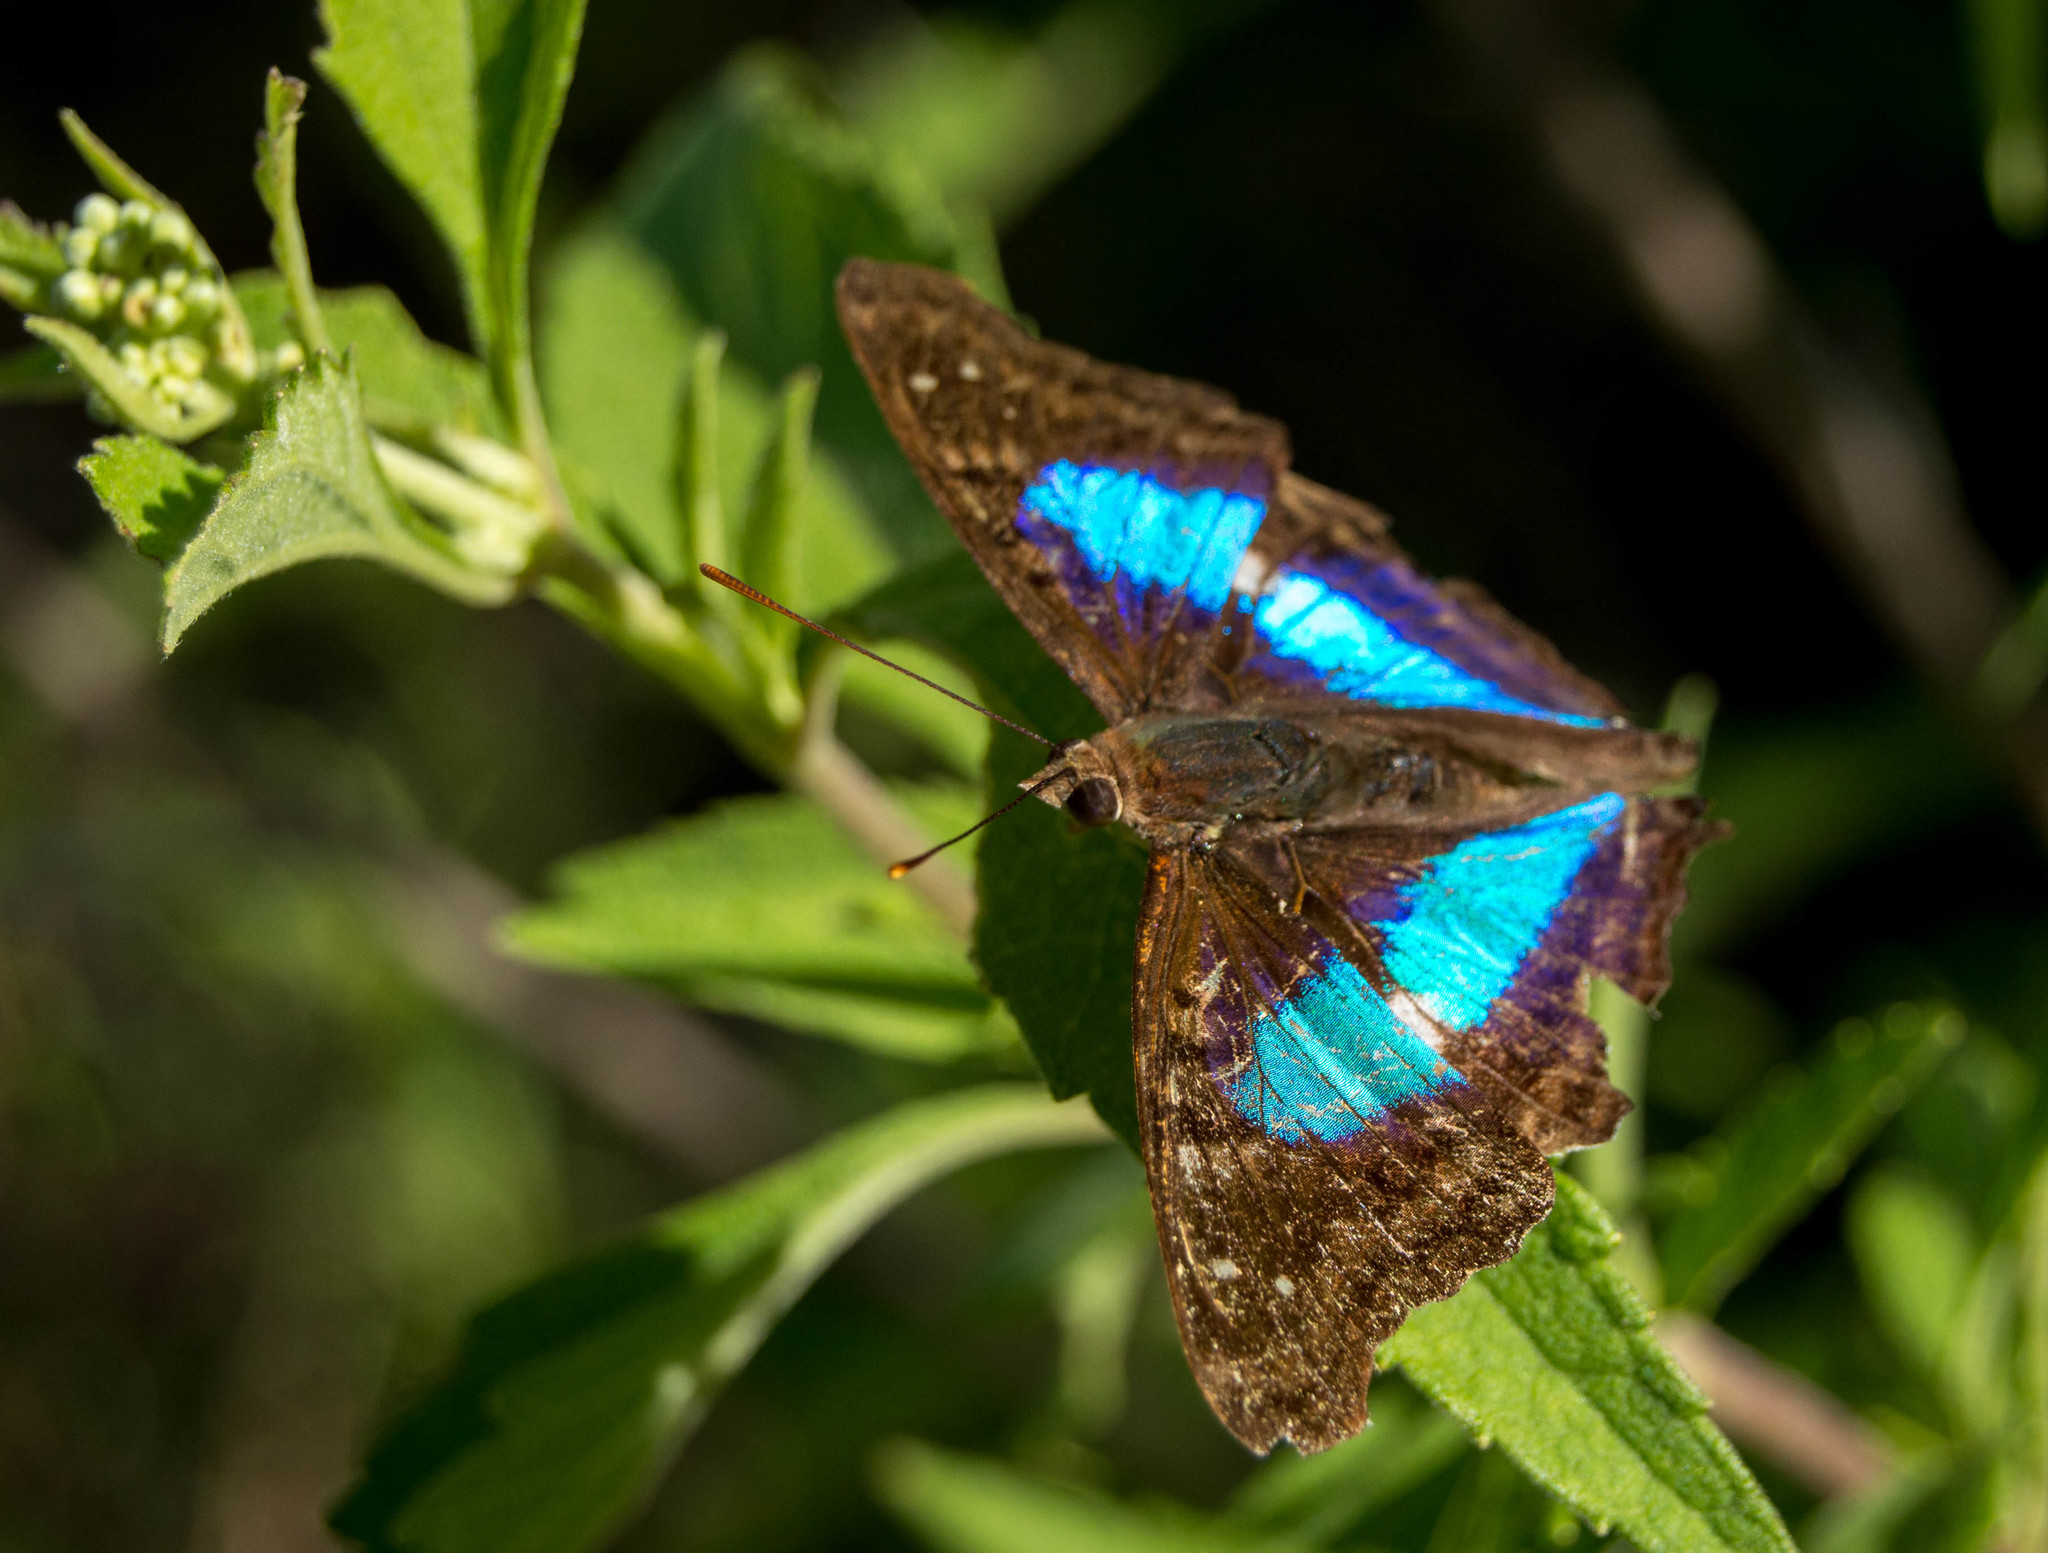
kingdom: Animalia
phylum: Arthropoda
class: Insecta
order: Lepidoptera
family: Nymphalidae
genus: Doxocopa
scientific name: Doxocopa laurentia
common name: Turquoise emperor
